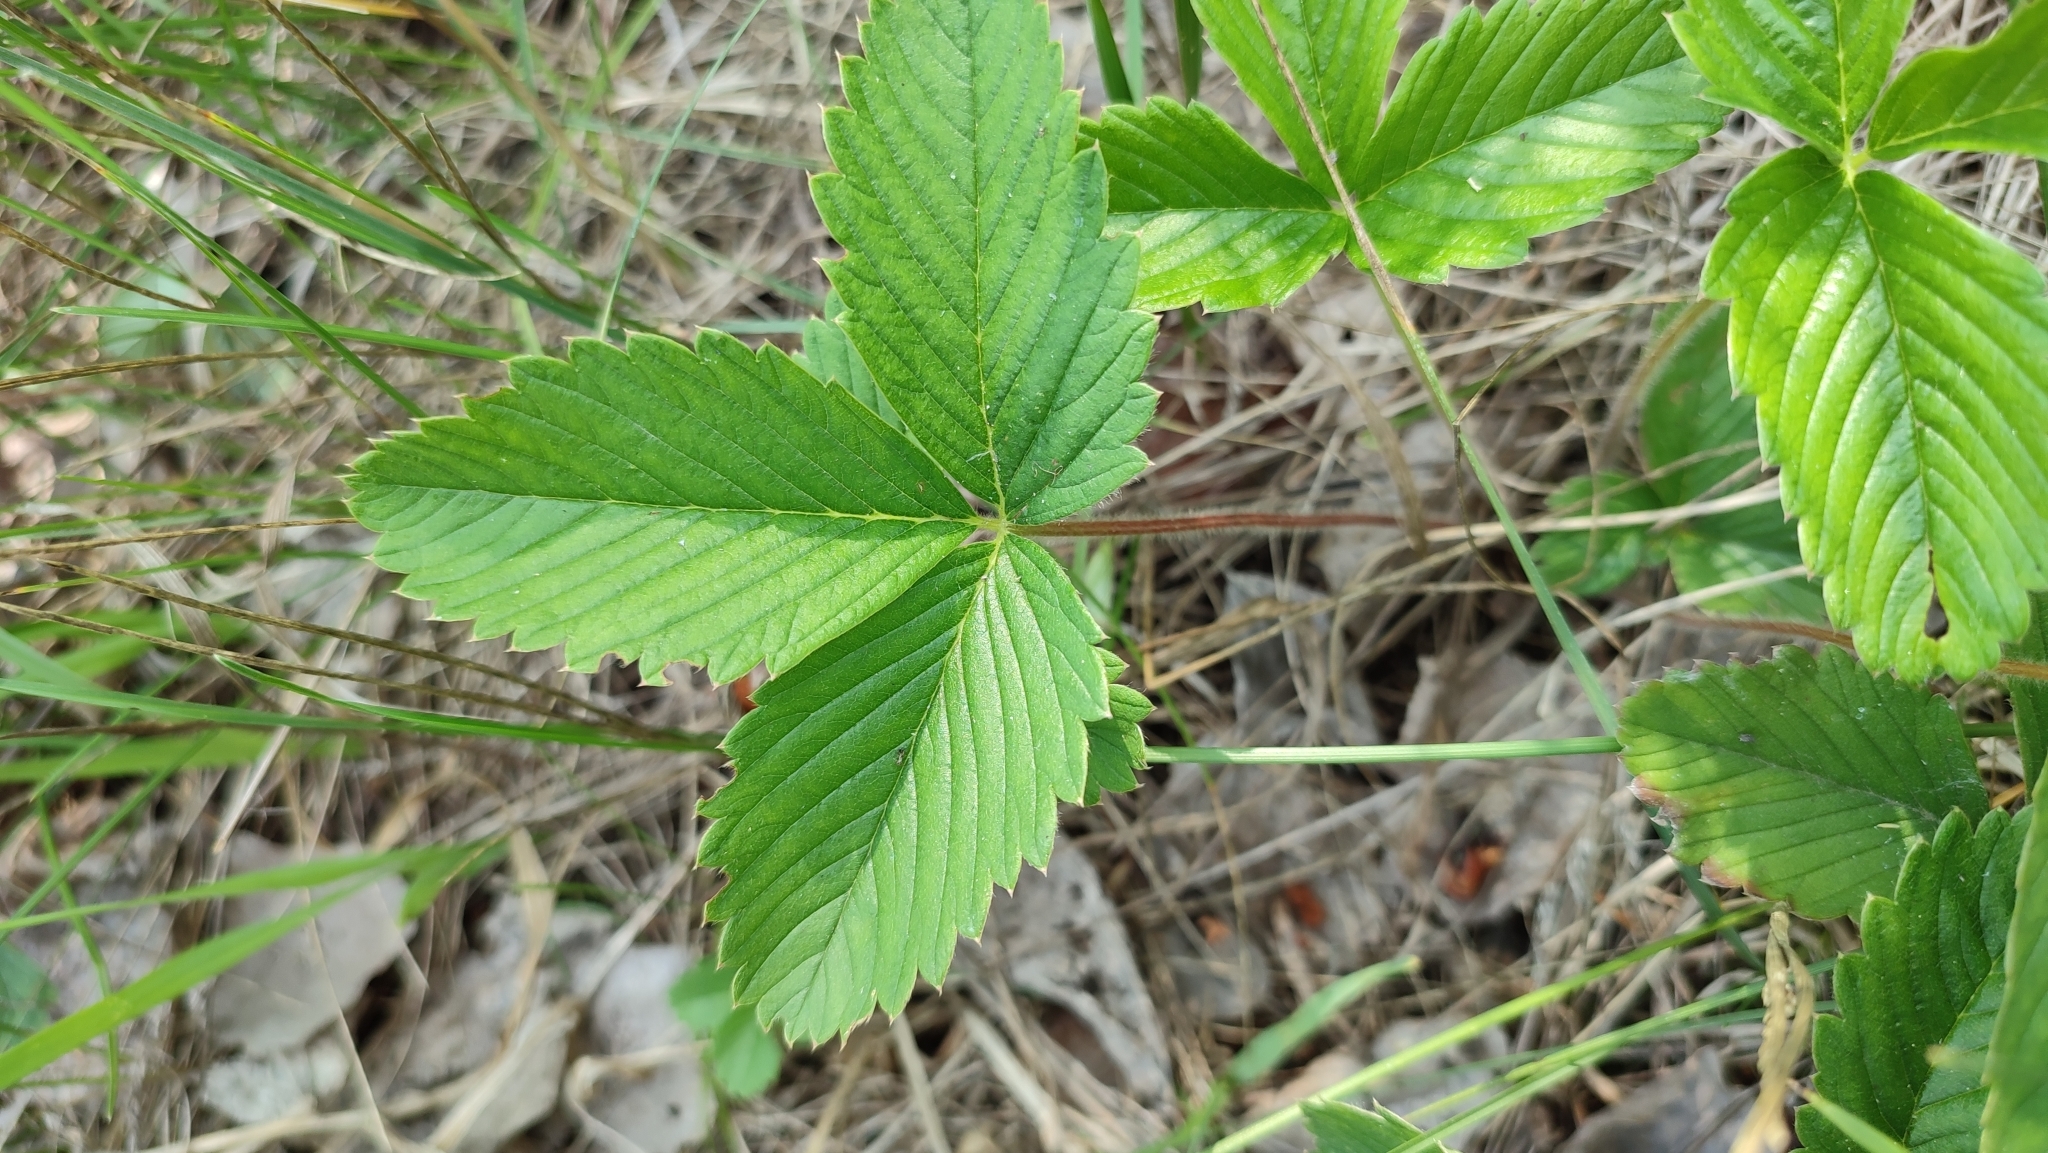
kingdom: Plantae
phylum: Tracheophyta
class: Magnoliopsida
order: Rosales
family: Rosaceae
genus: Fragaria
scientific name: Fragaria viridis
